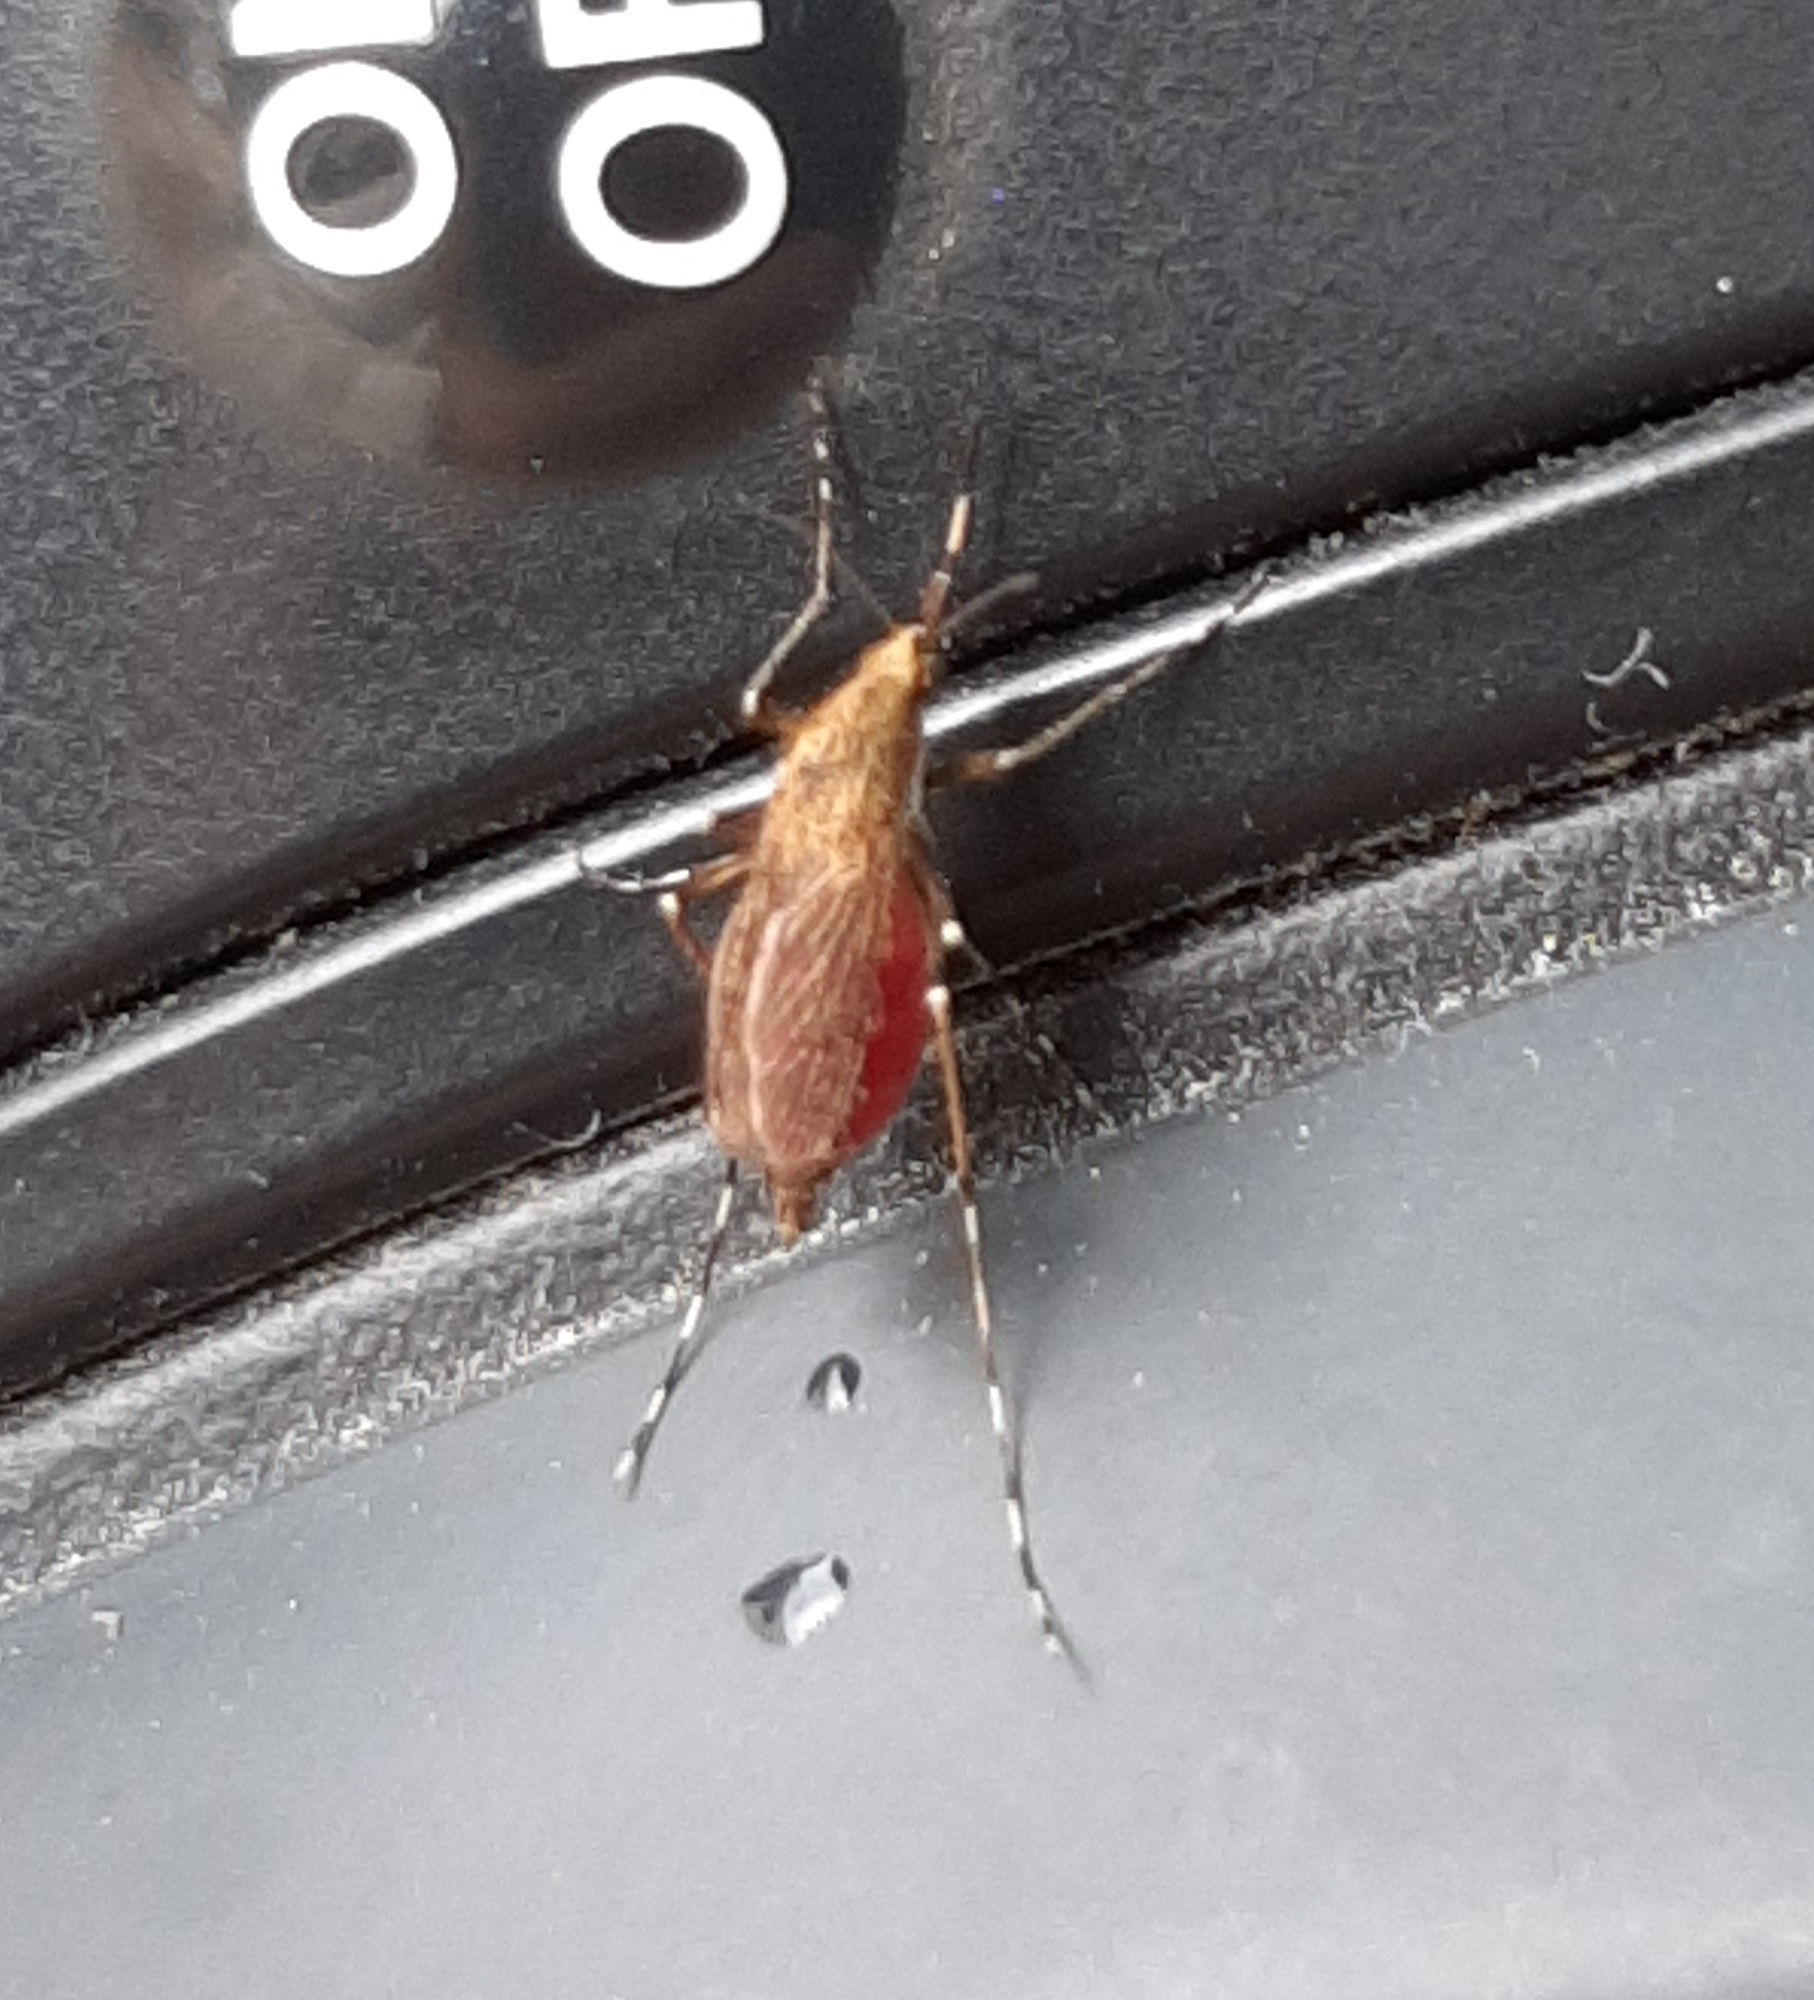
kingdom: Animalia
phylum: Arthropoda
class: Insecta
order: Diptera
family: Culicidae
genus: Aedes
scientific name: Aedes sollicitans
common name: Saltmarsh mosquito
